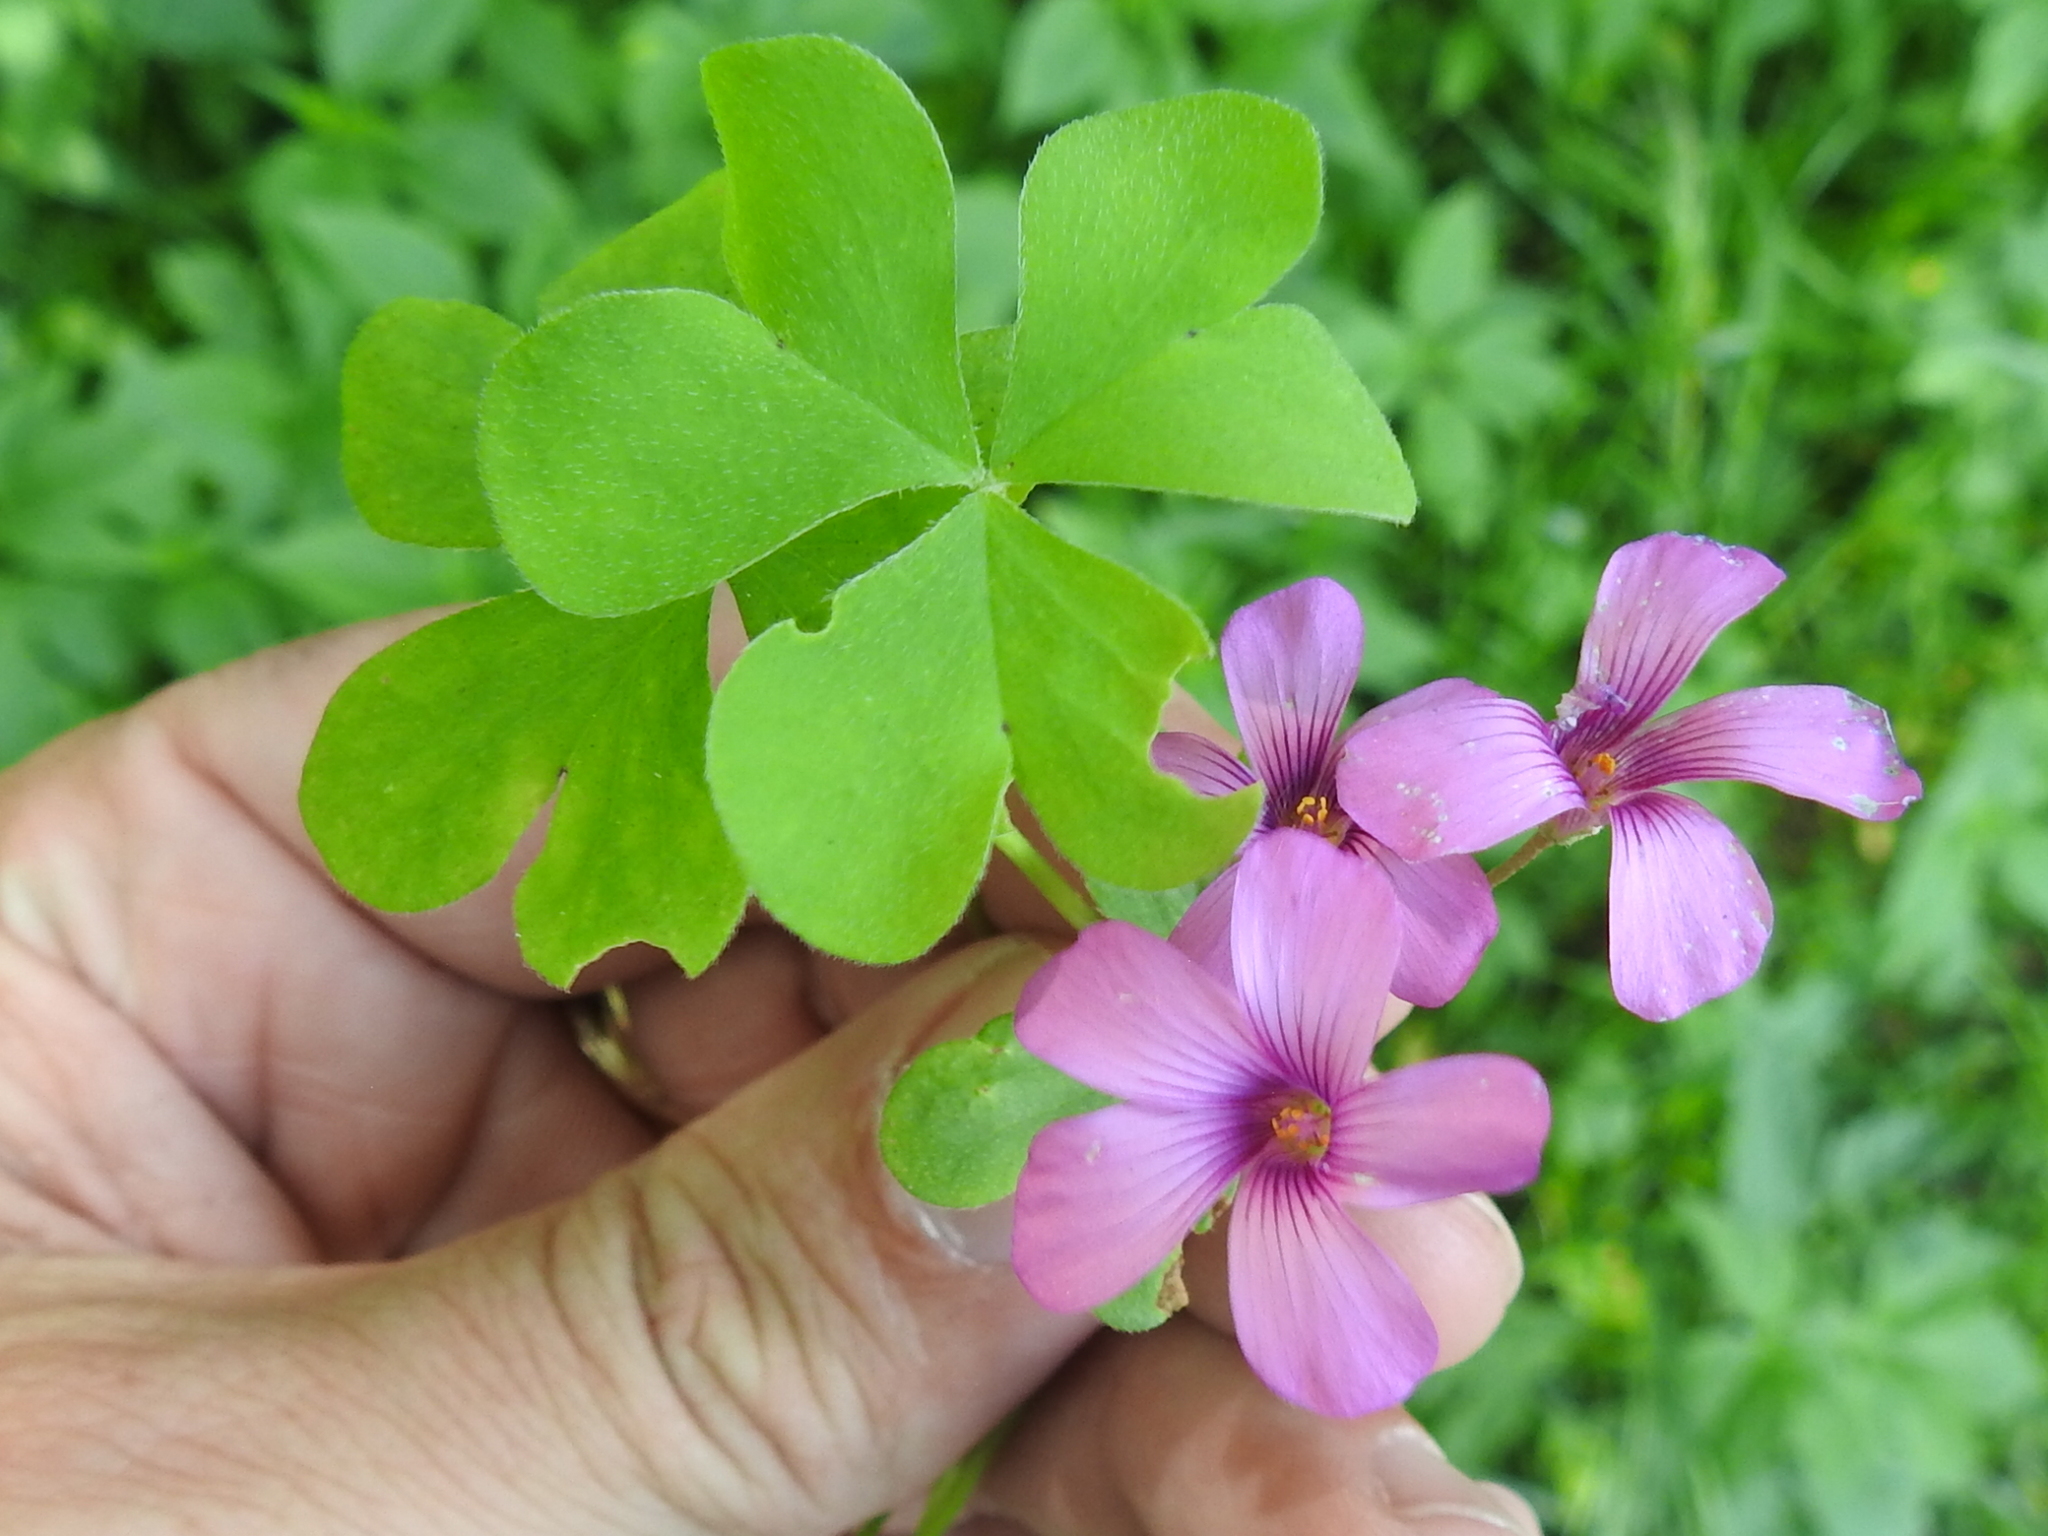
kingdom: Plantae
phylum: Tracheophyta
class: Magnoliopsida
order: Oxalidales
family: Oxalidaceae
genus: Oxalis
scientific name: Oxalis articulata
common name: Pink-sorrel
